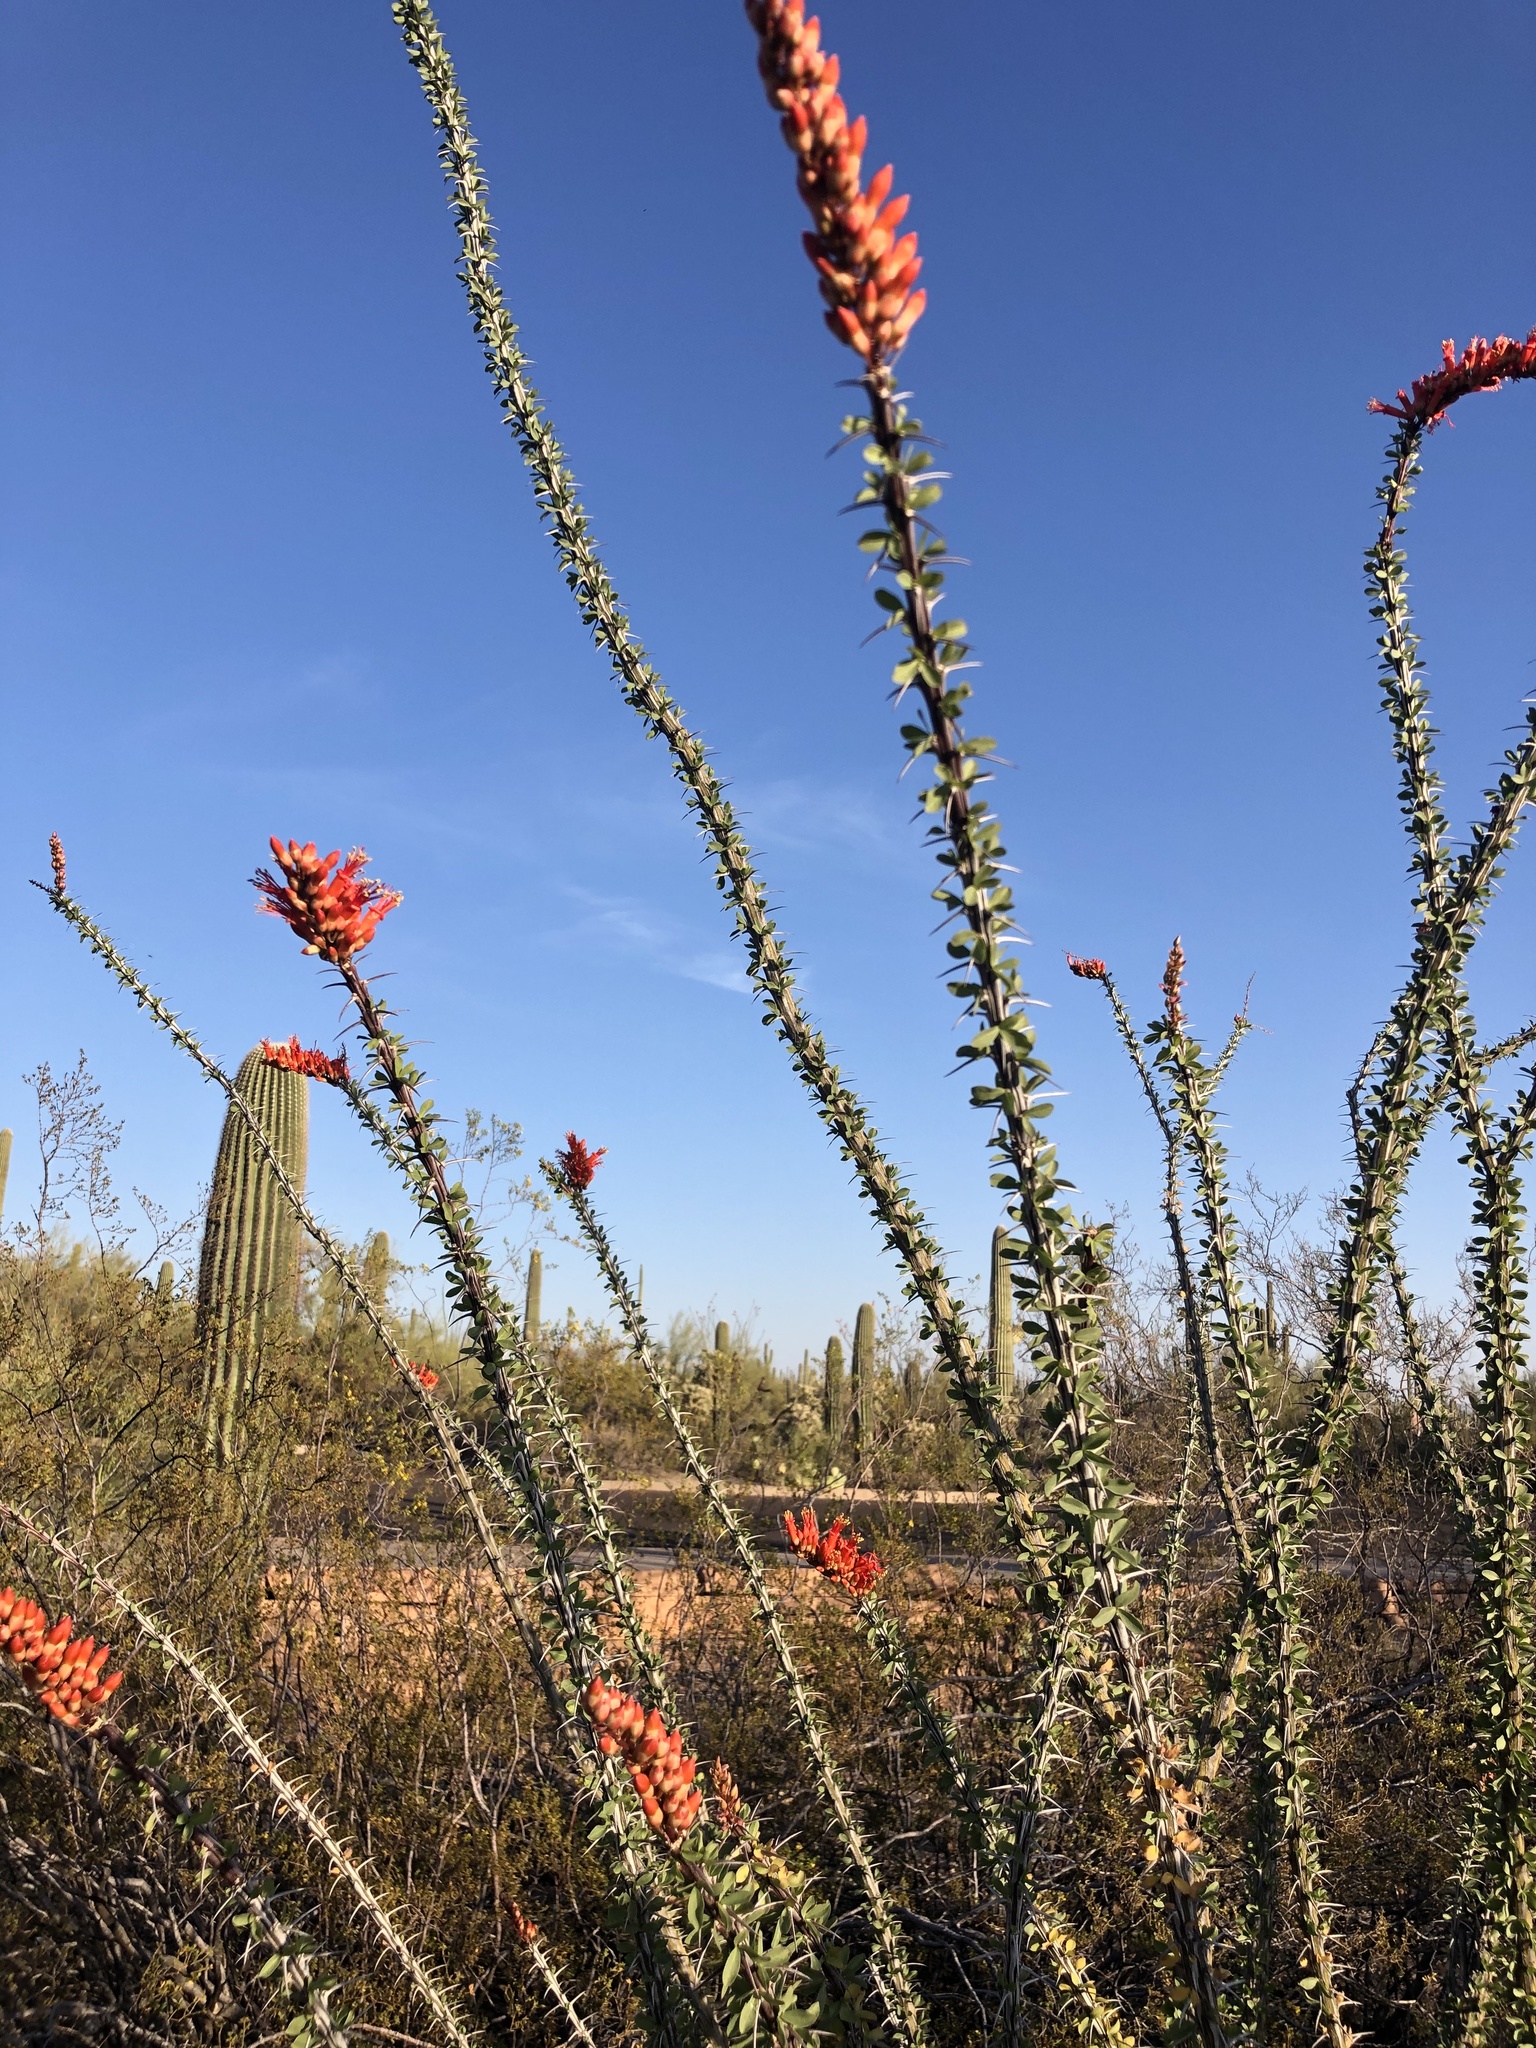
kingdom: Plantae
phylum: Tracheophyta
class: Magnoliopsida
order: Ericales
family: Fouquieriaceae
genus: Fouquieria
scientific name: Fouquieria splendens
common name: Vine-cactus
